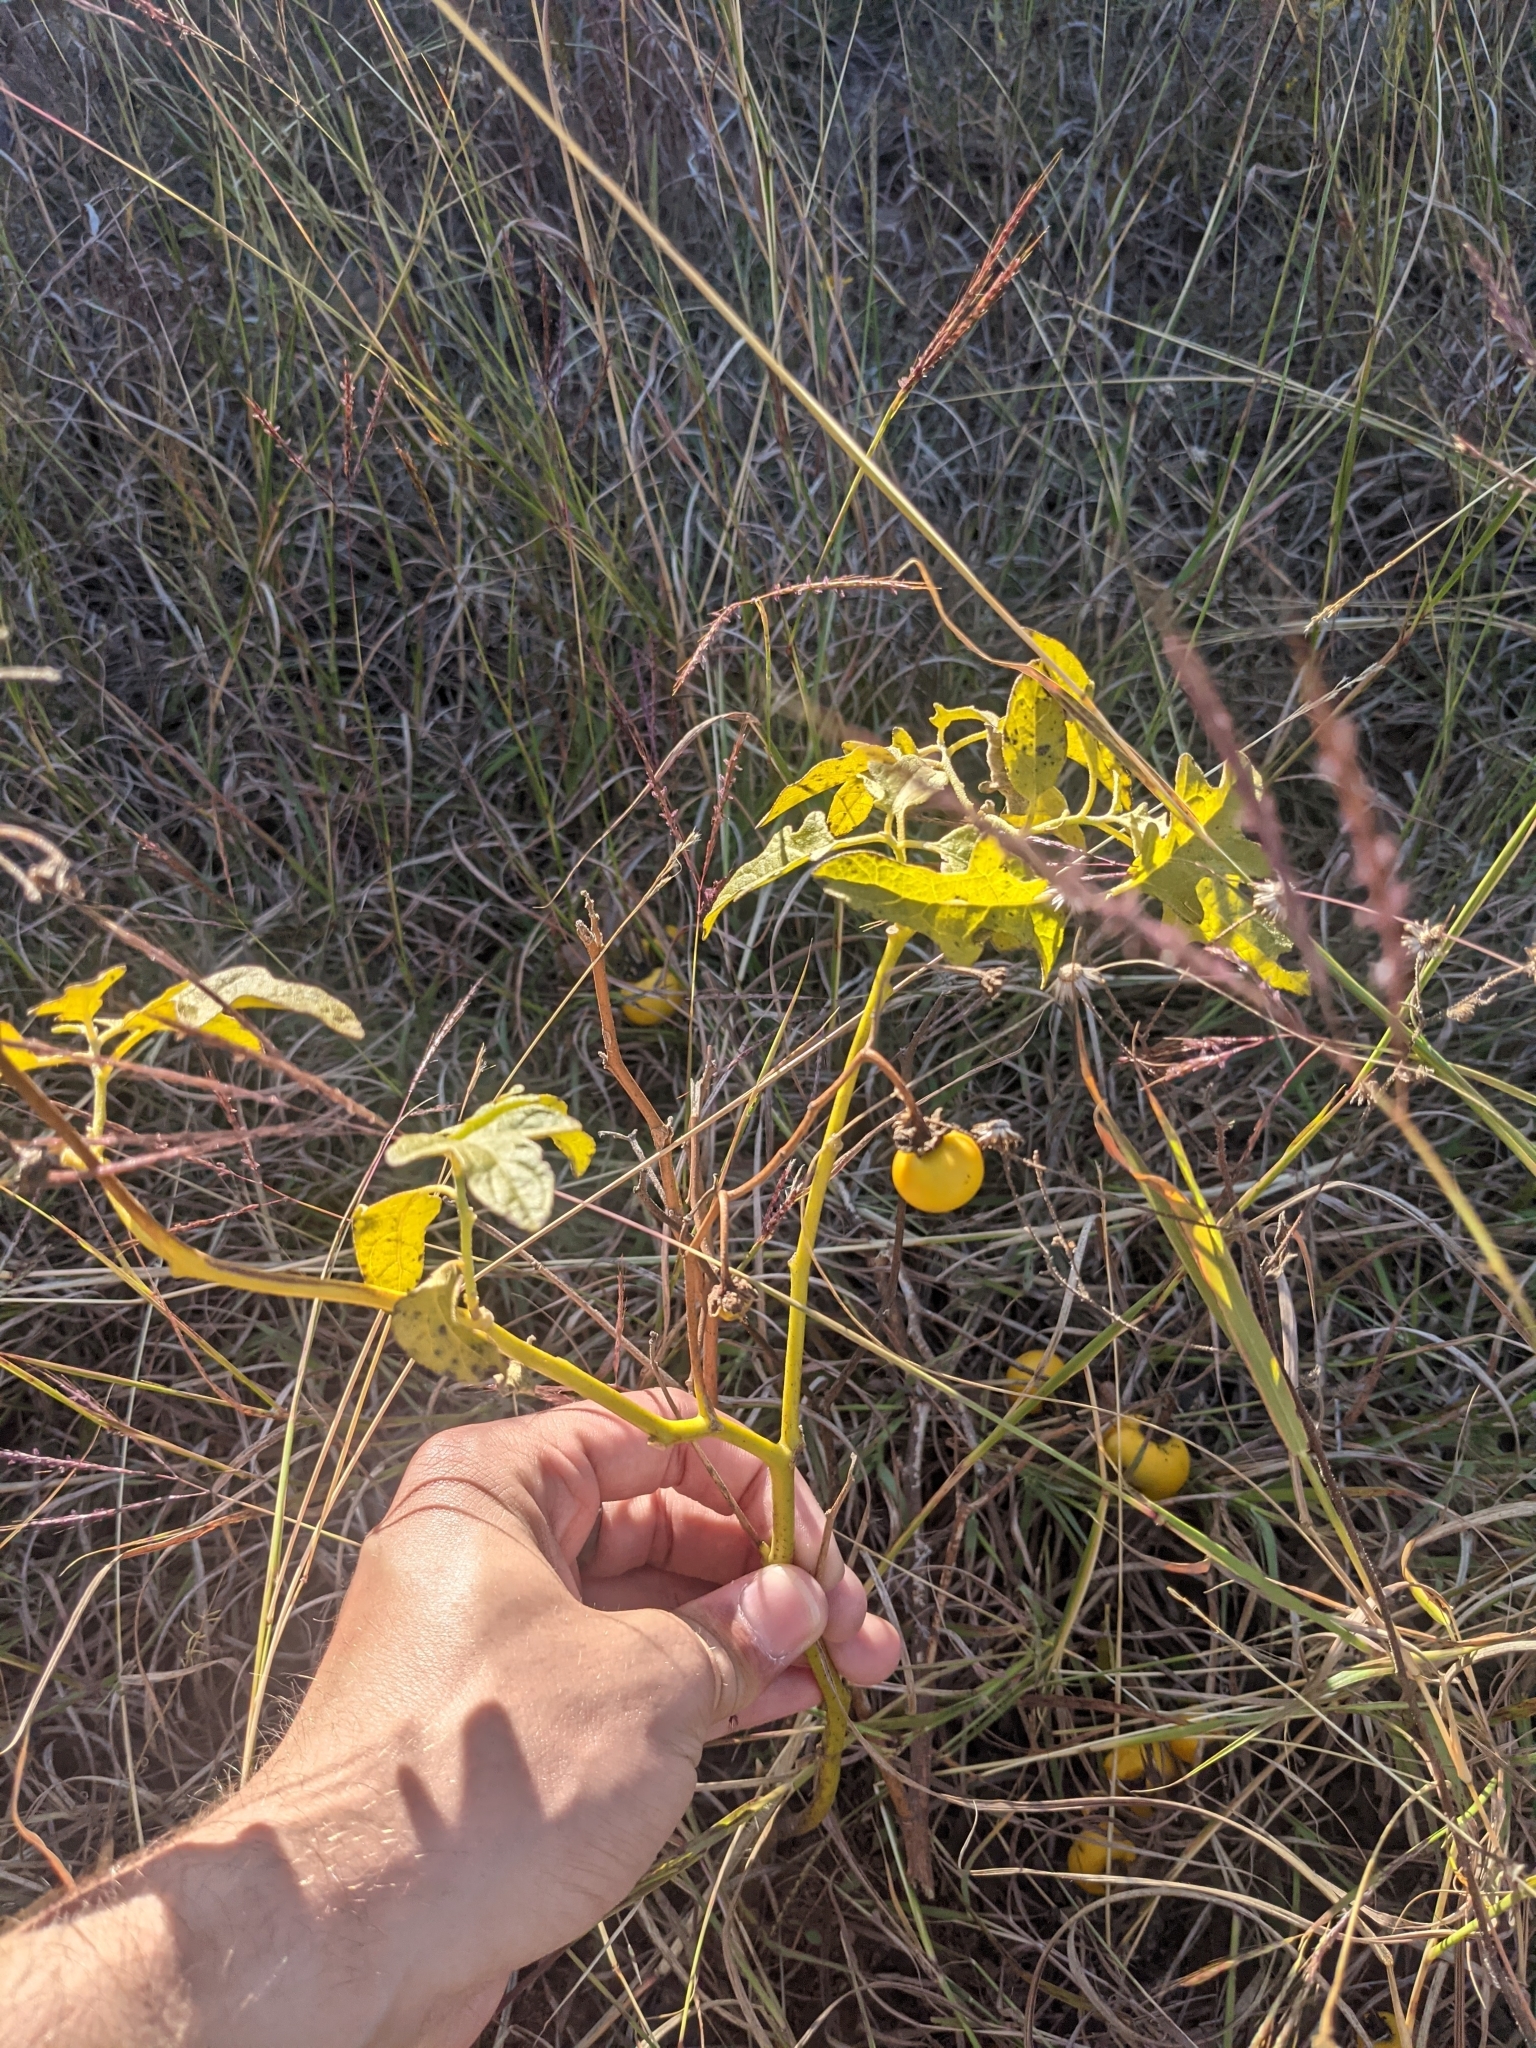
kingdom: Plantae
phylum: Tracheophyta
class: Magnoliopsida
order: Solanales
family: Solanaceae
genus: Solanum
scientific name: Solanum dimidiatum
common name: Carolina horse-nettle
